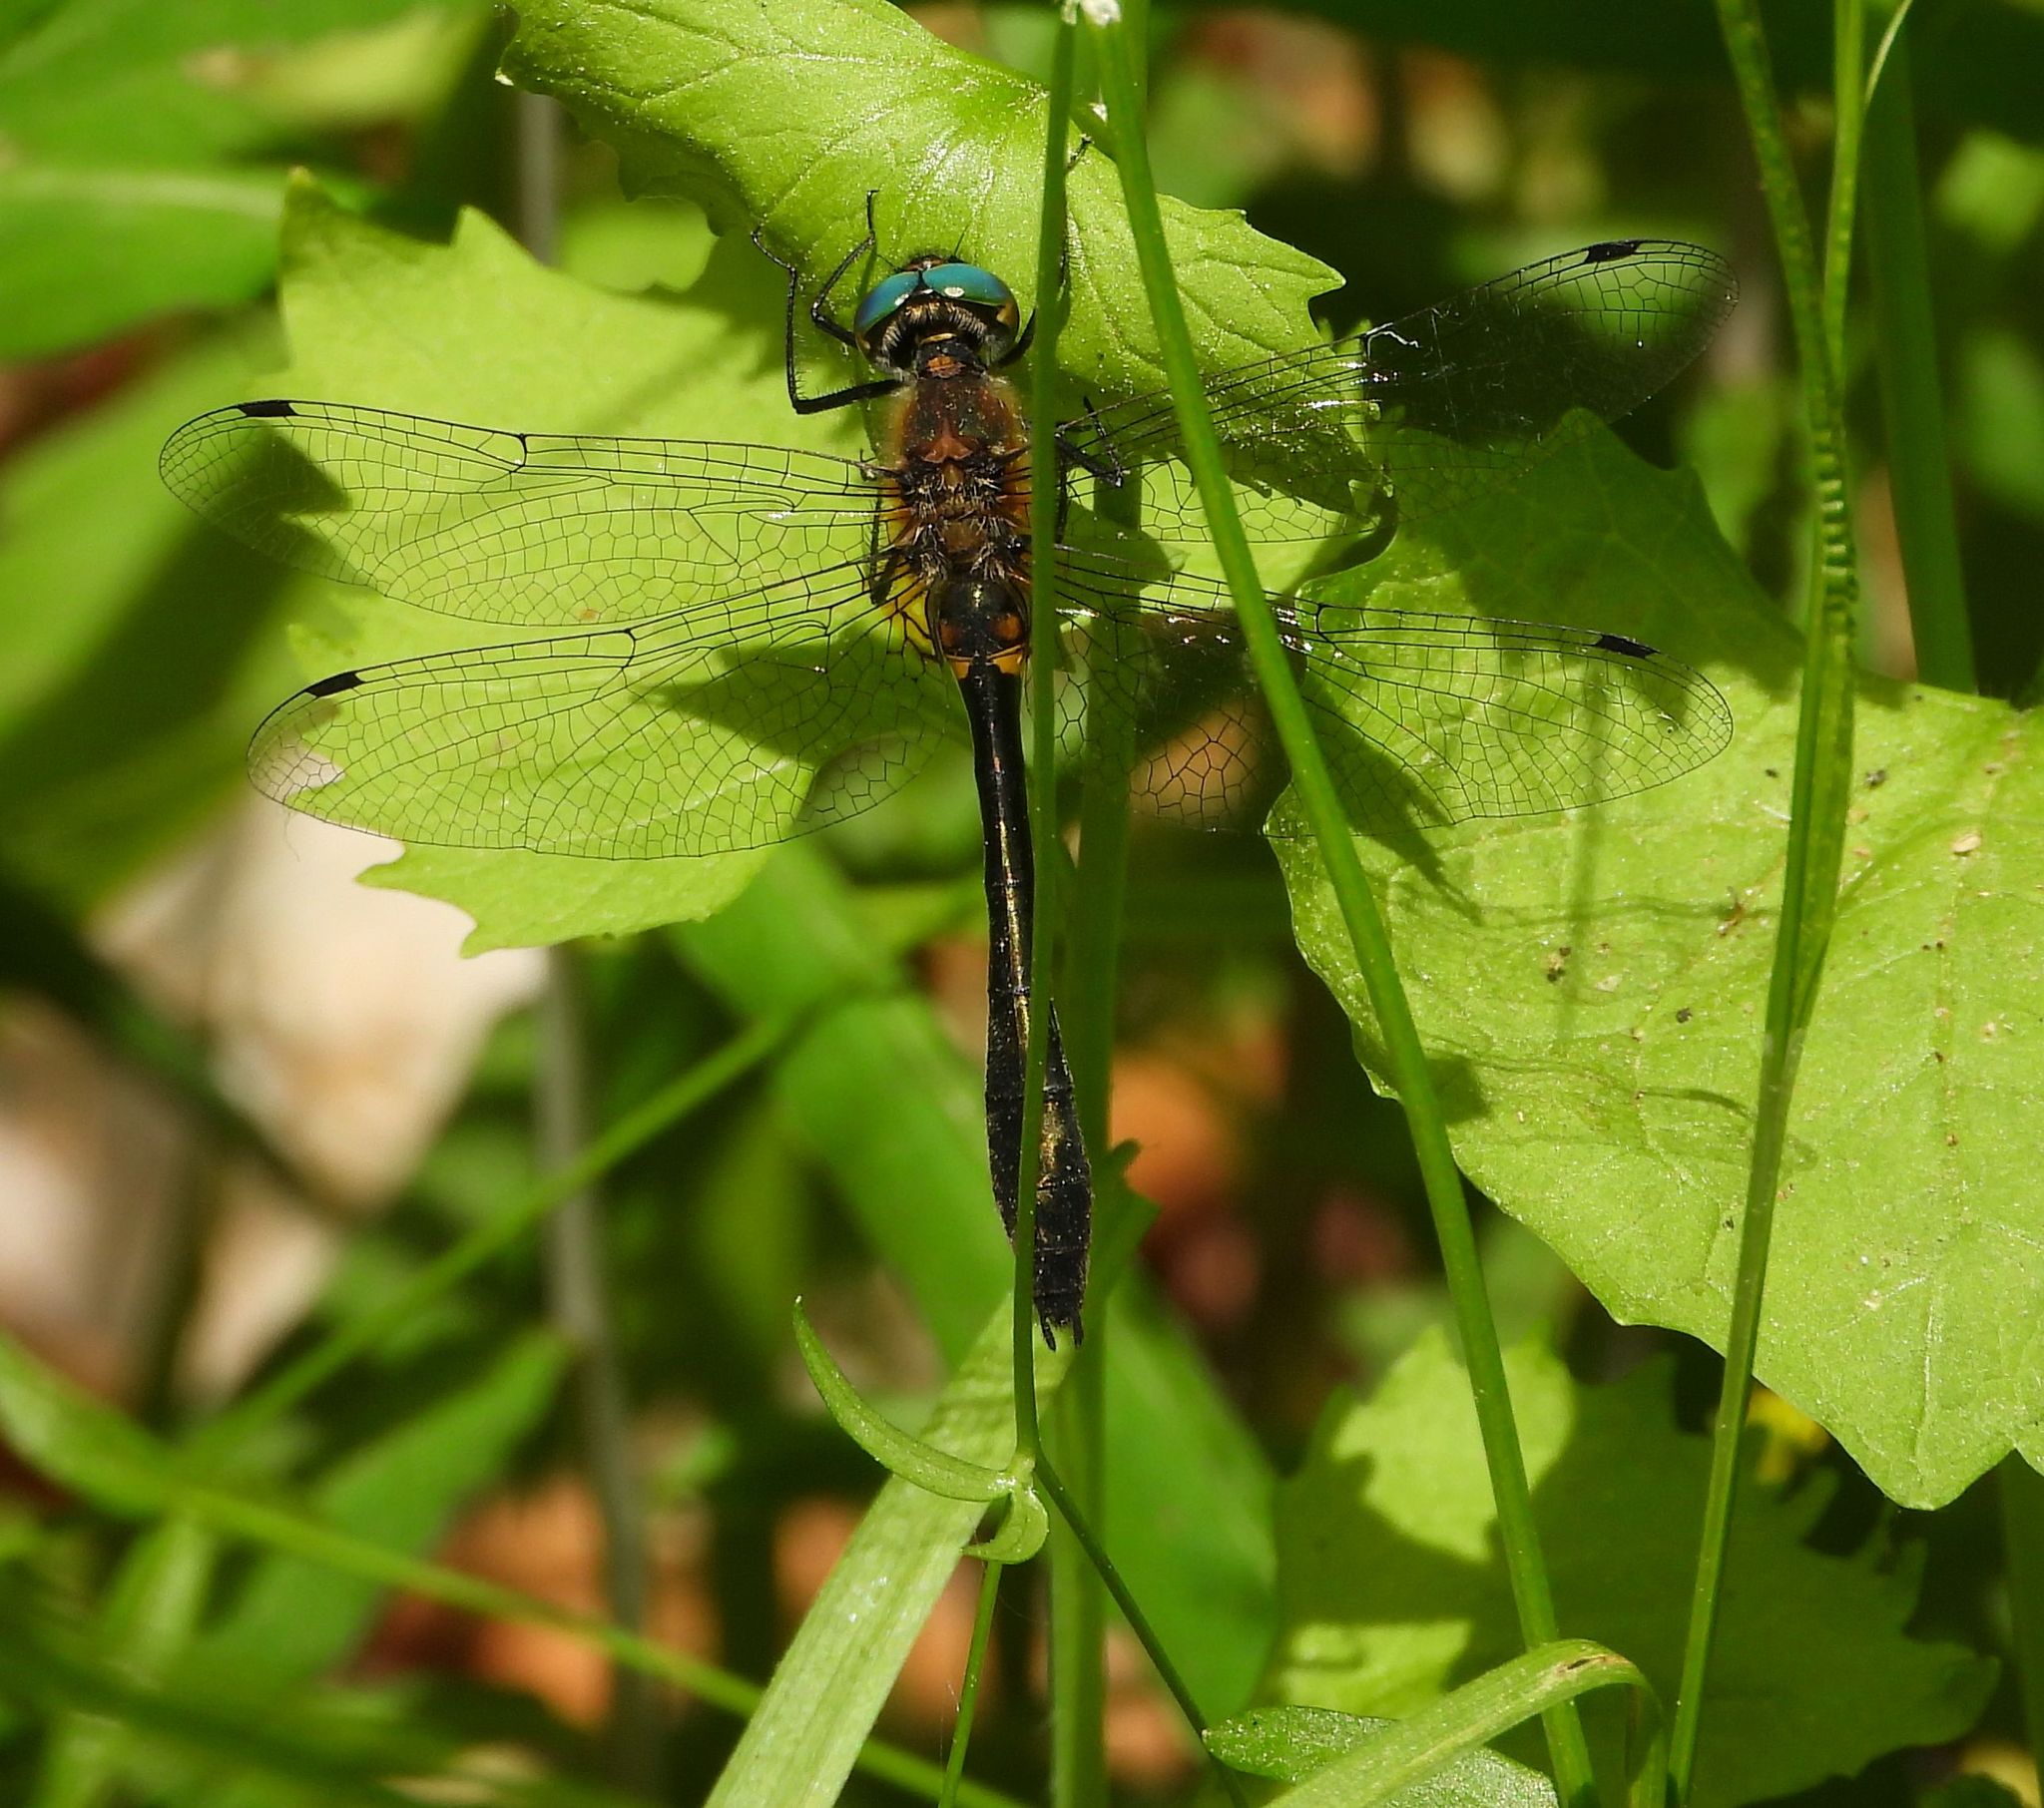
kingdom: Animalia
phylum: Arthropoda
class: Insecta
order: Odonata
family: Corduliidae
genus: Dorocordulia
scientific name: Dorocordulia libera
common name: Racket-tailed emerald
